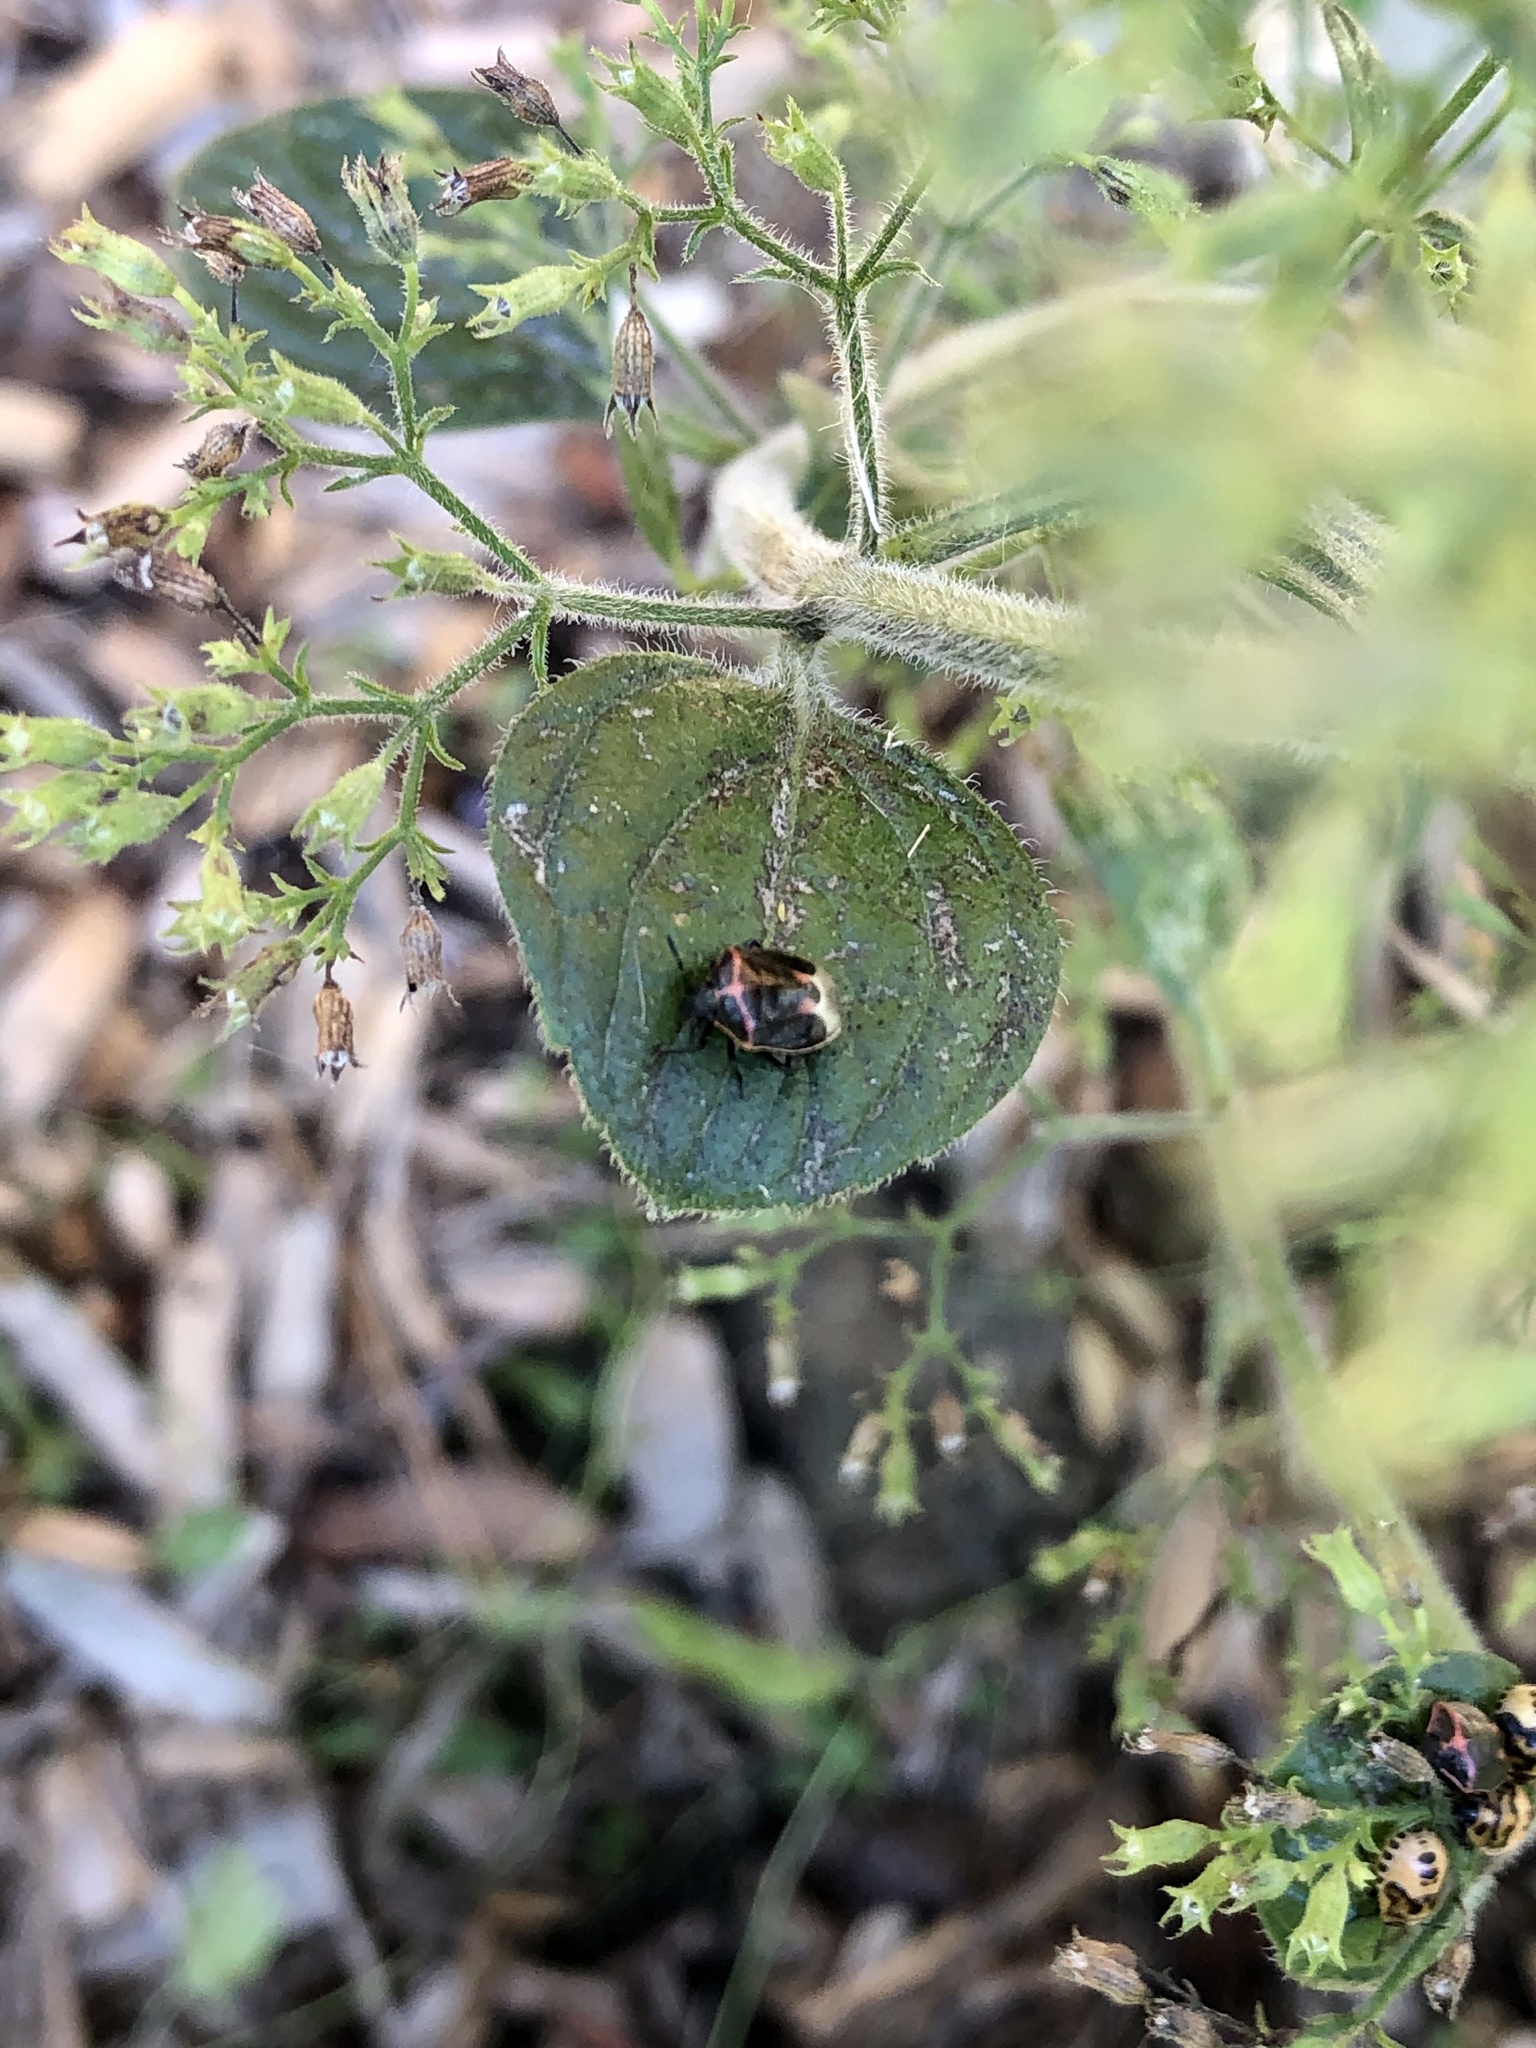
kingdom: Animalia
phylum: Arthropoda
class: Insecta
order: Hemiptera
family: Pentatomidae
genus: Cosmopepla
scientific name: Cosmopepla lintneriana
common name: Twice-stabbed stink bug
